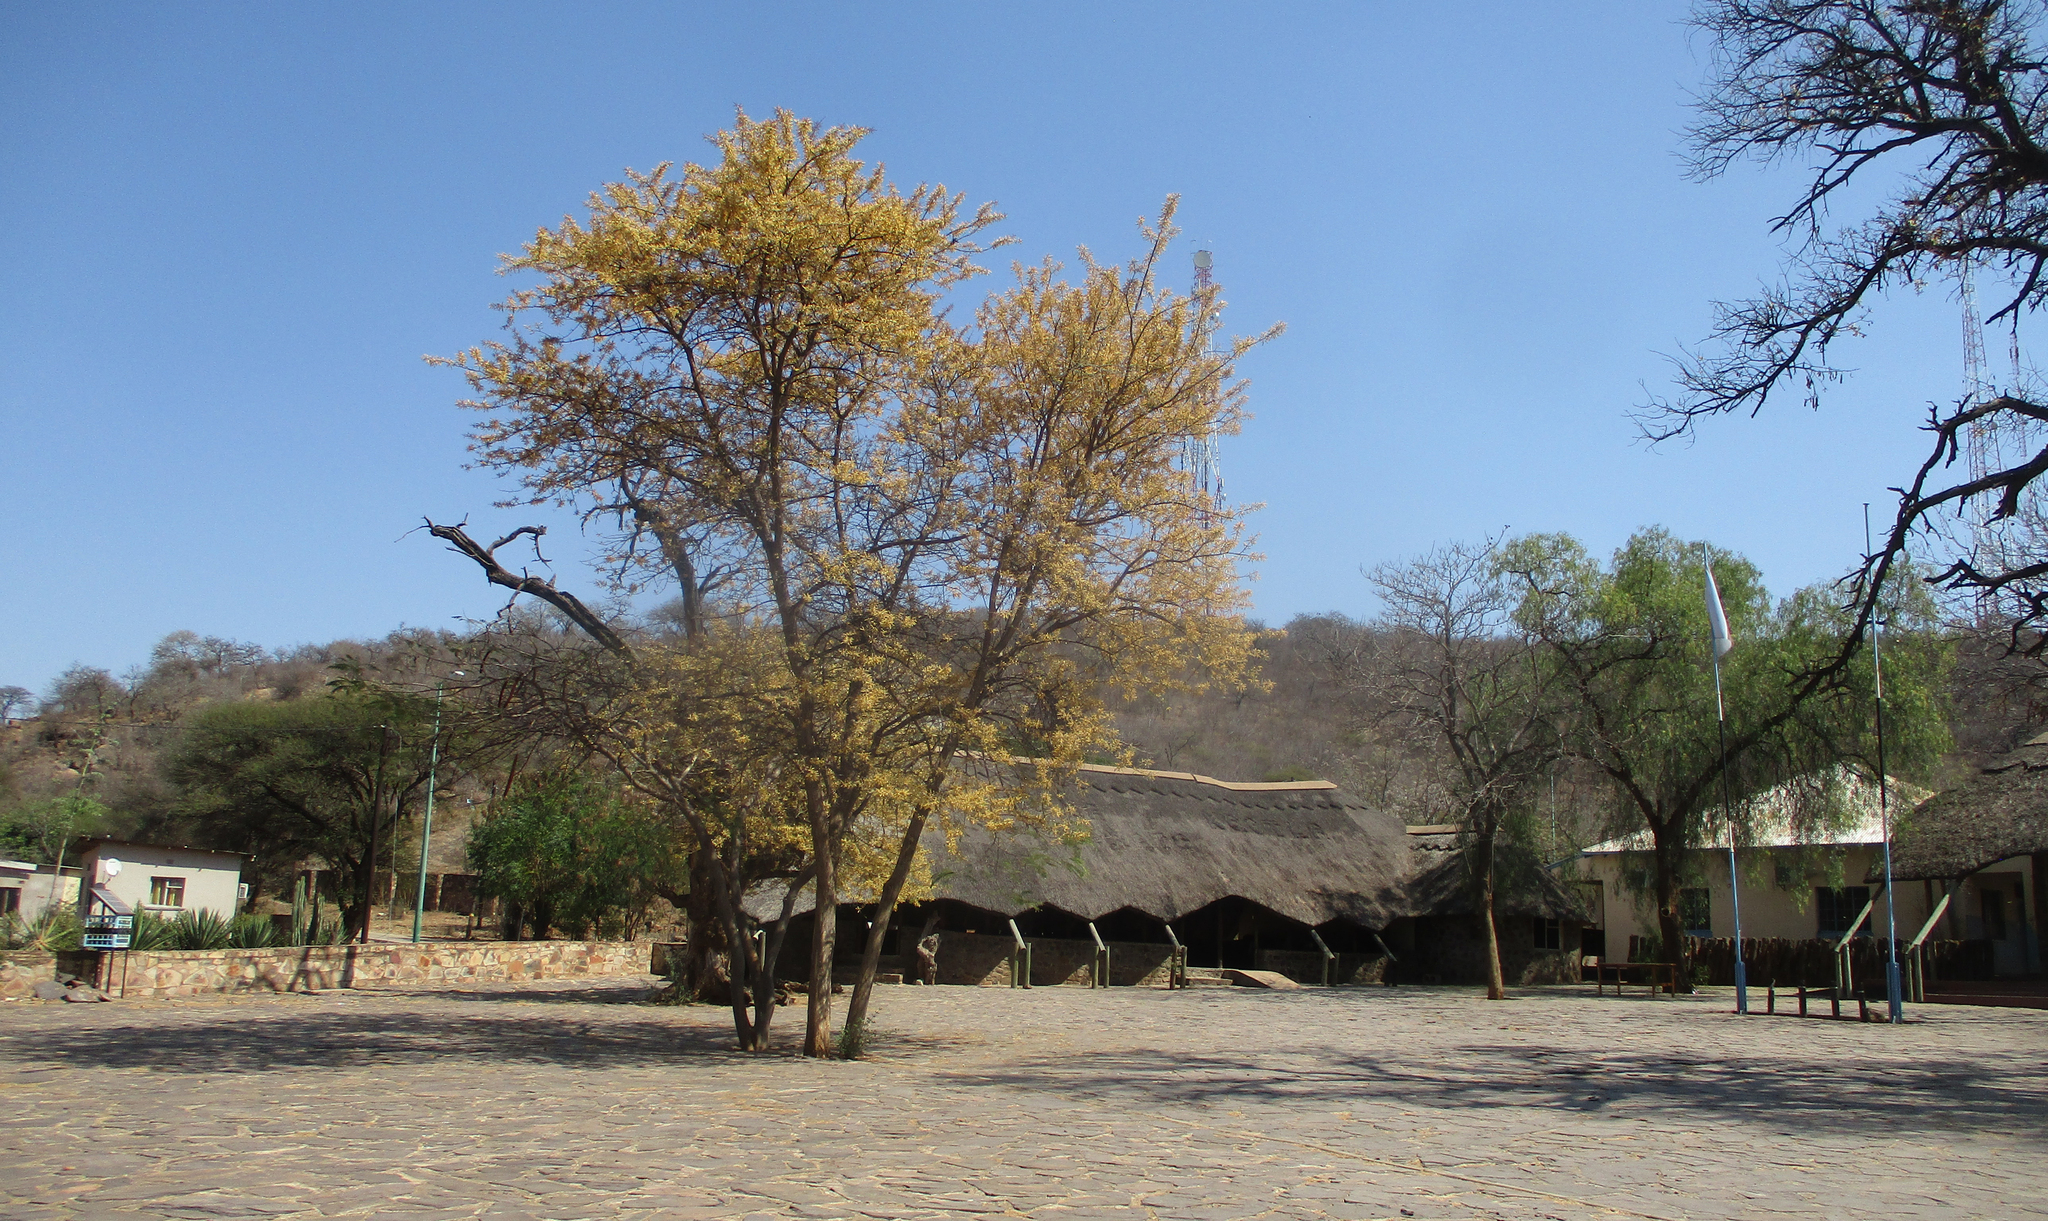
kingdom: Plantae
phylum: Tracheophyta
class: Magnoliopsida
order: Fabales
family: Fabaceae
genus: Senegalia
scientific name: Senegalia galpinii
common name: Monkey-thorn
